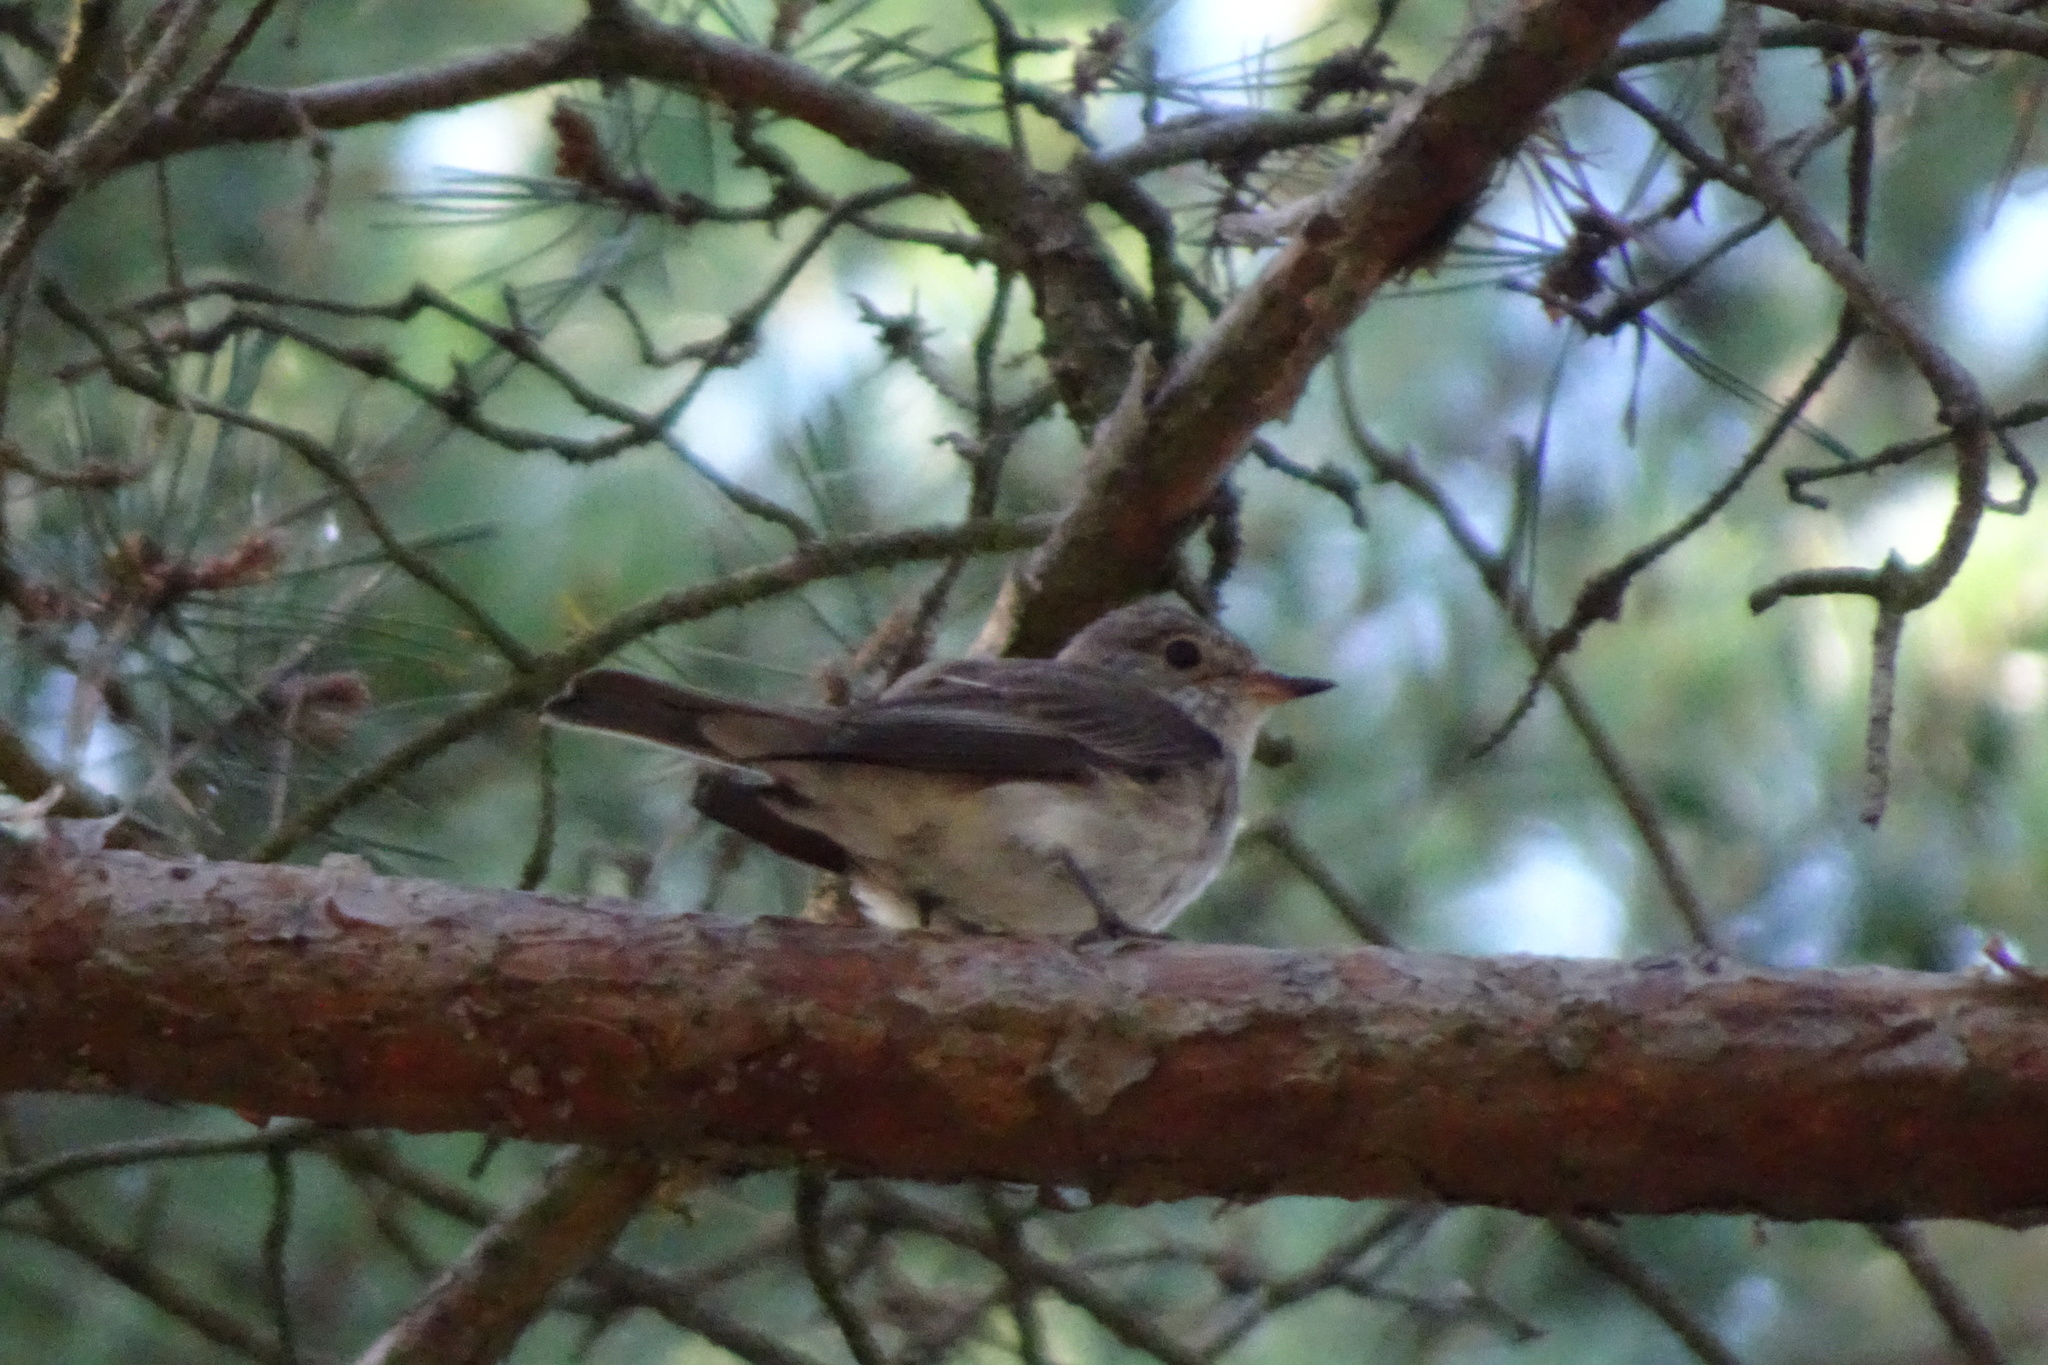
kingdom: Animalia
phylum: Chordata
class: Aves
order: Passeriformes
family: Muscicapidae
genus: Muscicapa
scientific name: Muscicapa striata
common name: Spotted flycatcher
